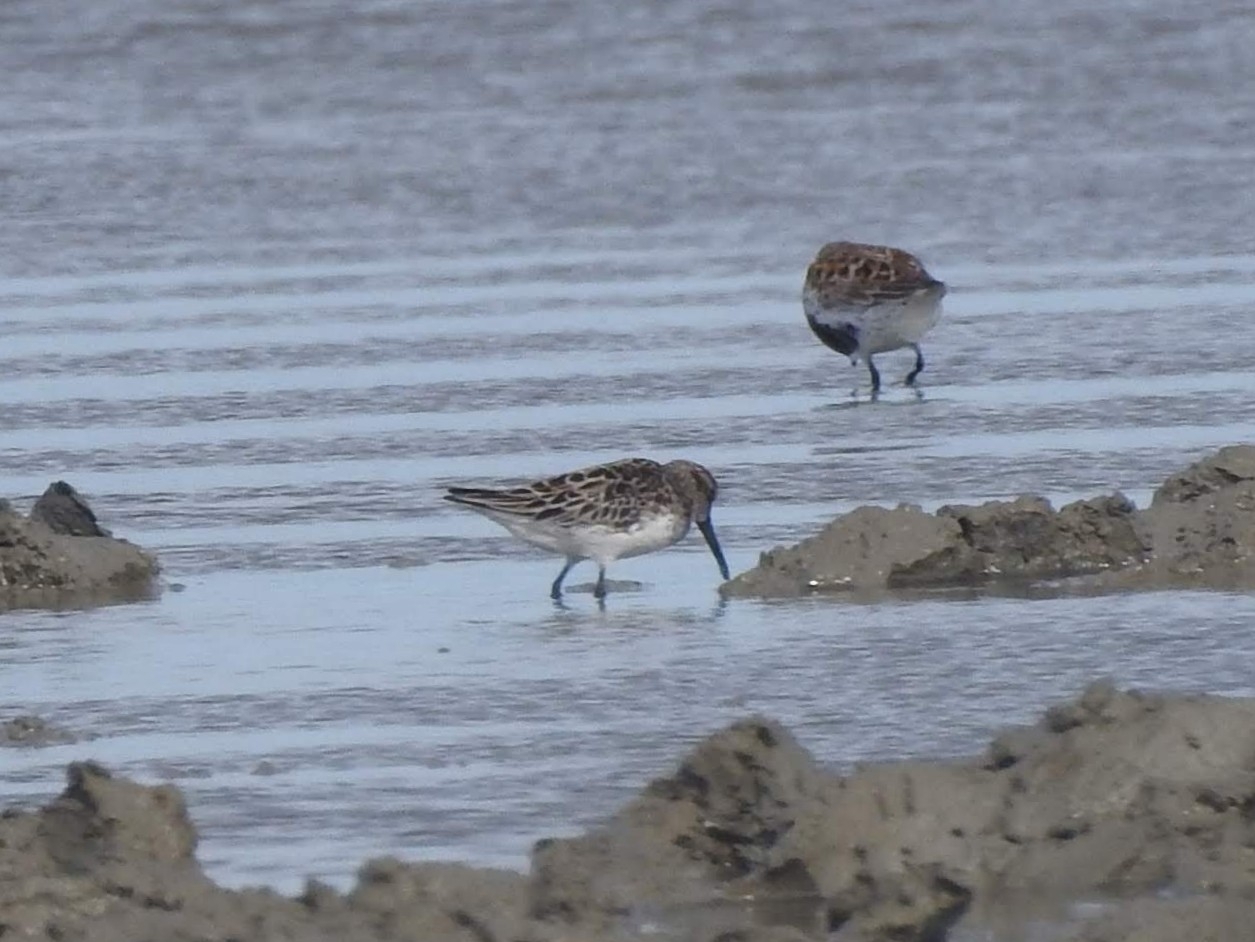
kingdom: Animalia
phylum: Chordata
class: Aves
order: Charadriiformes
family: Scolopacidae
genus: Calidris
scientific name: Calidris falcinellus
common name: Broad-billed sandpiper
